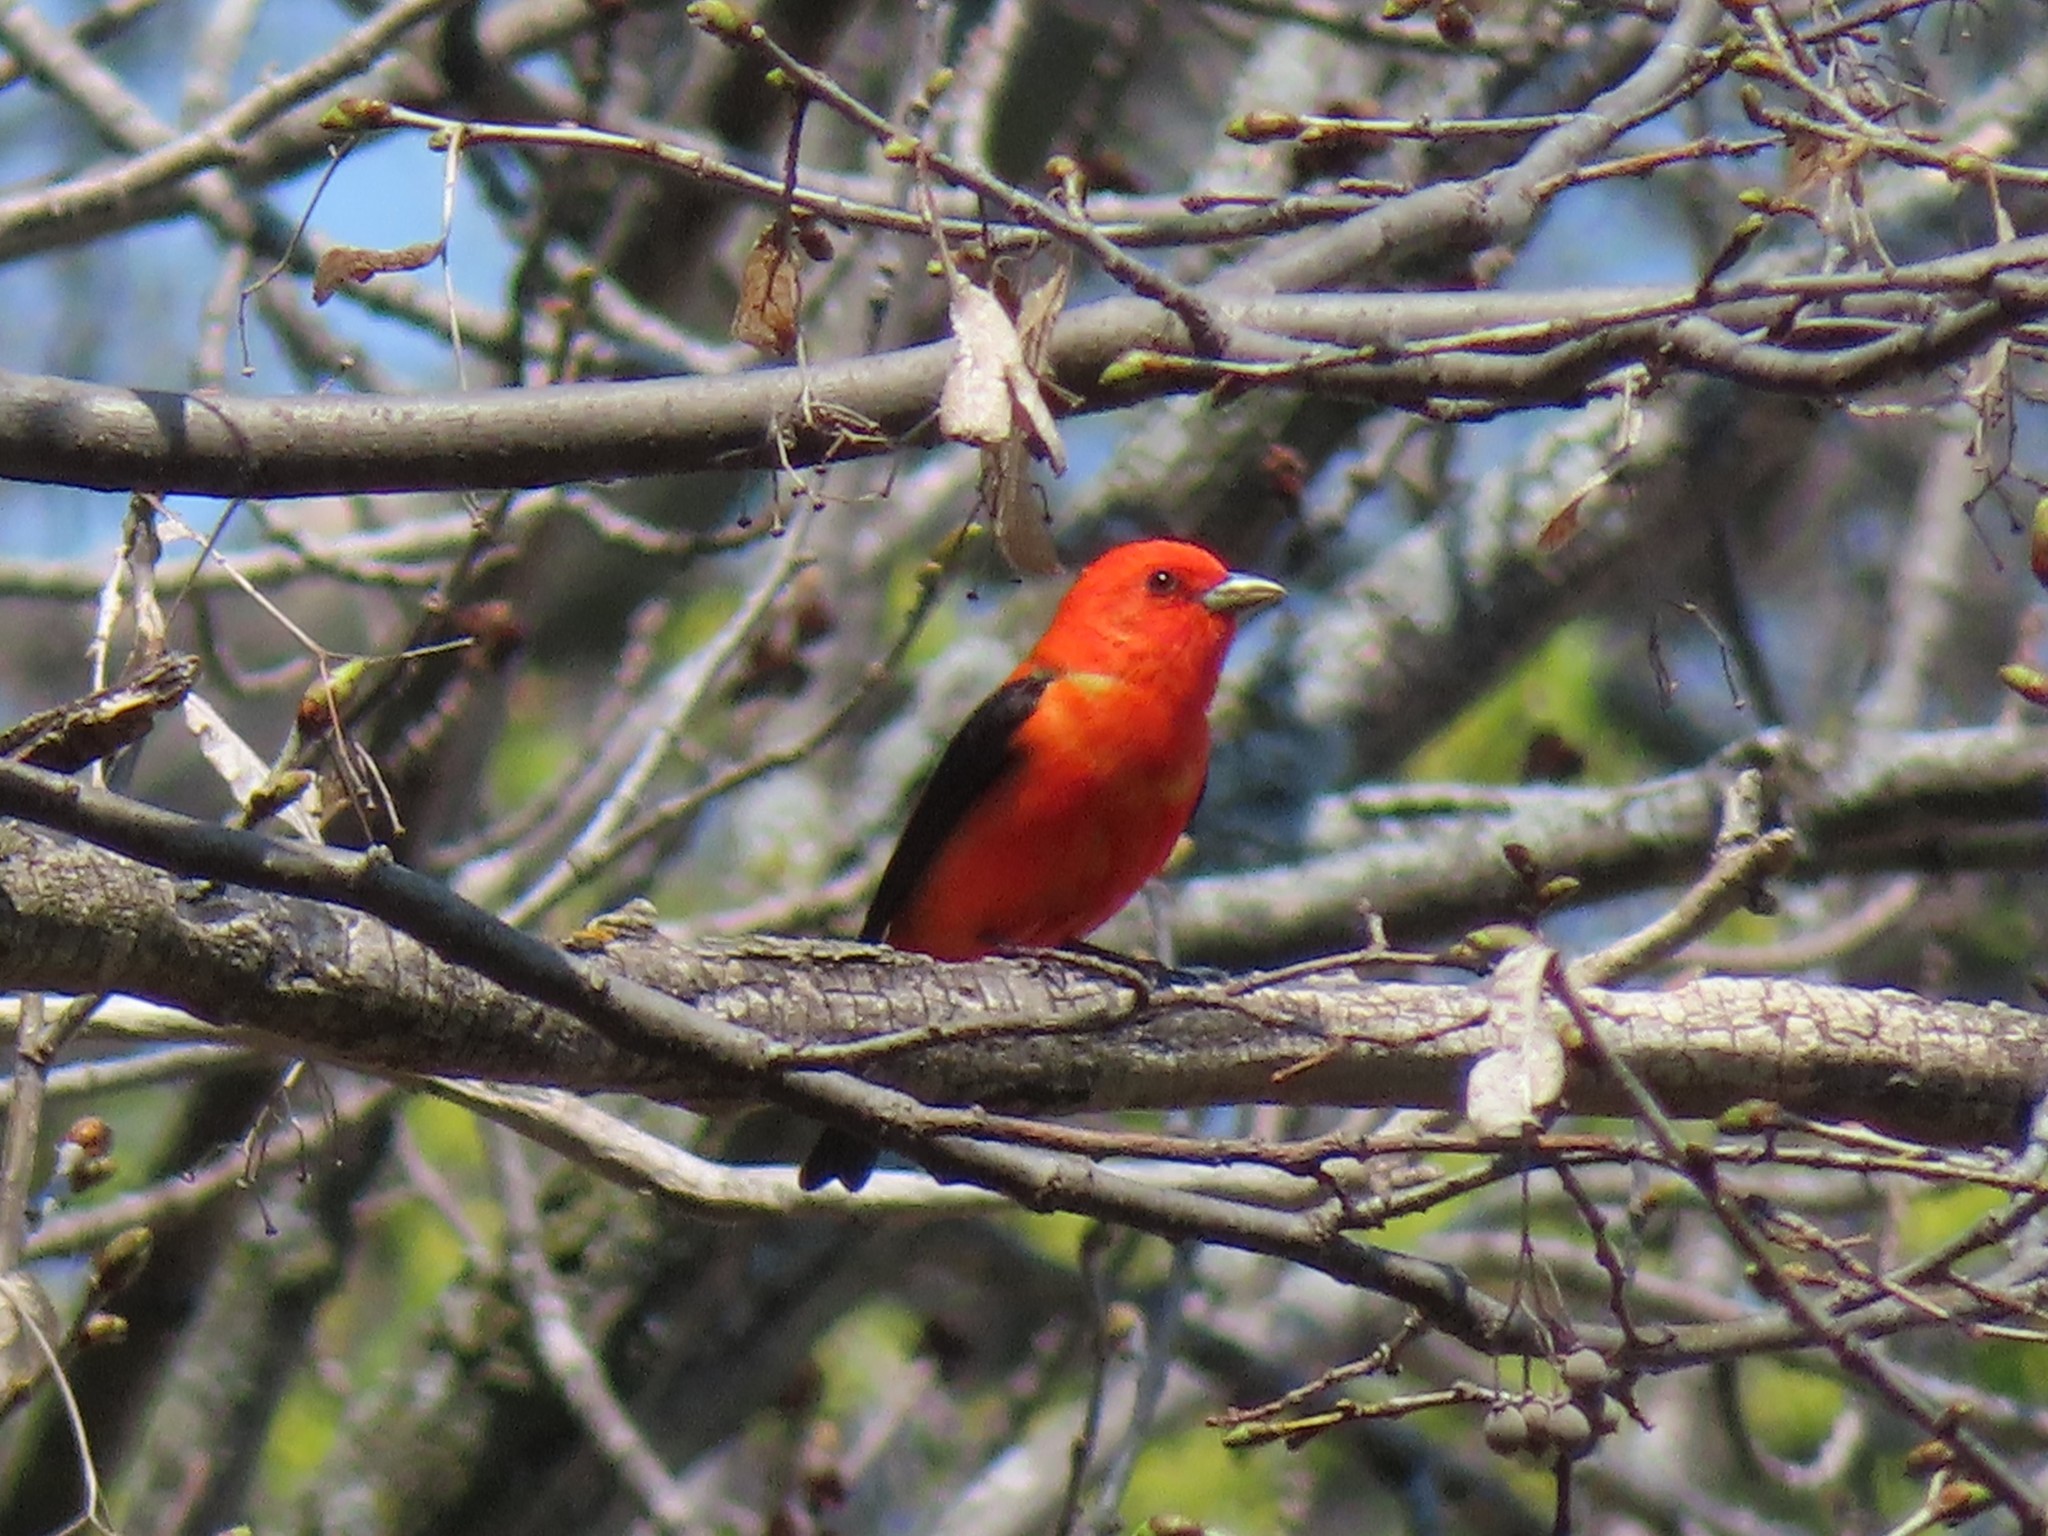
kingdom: Animalia
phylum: Chordata
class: Aves
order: Passeriformes
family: Cardinalidae
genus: Piranga
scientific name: Piranga olivacea
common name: Scarlet tanager
